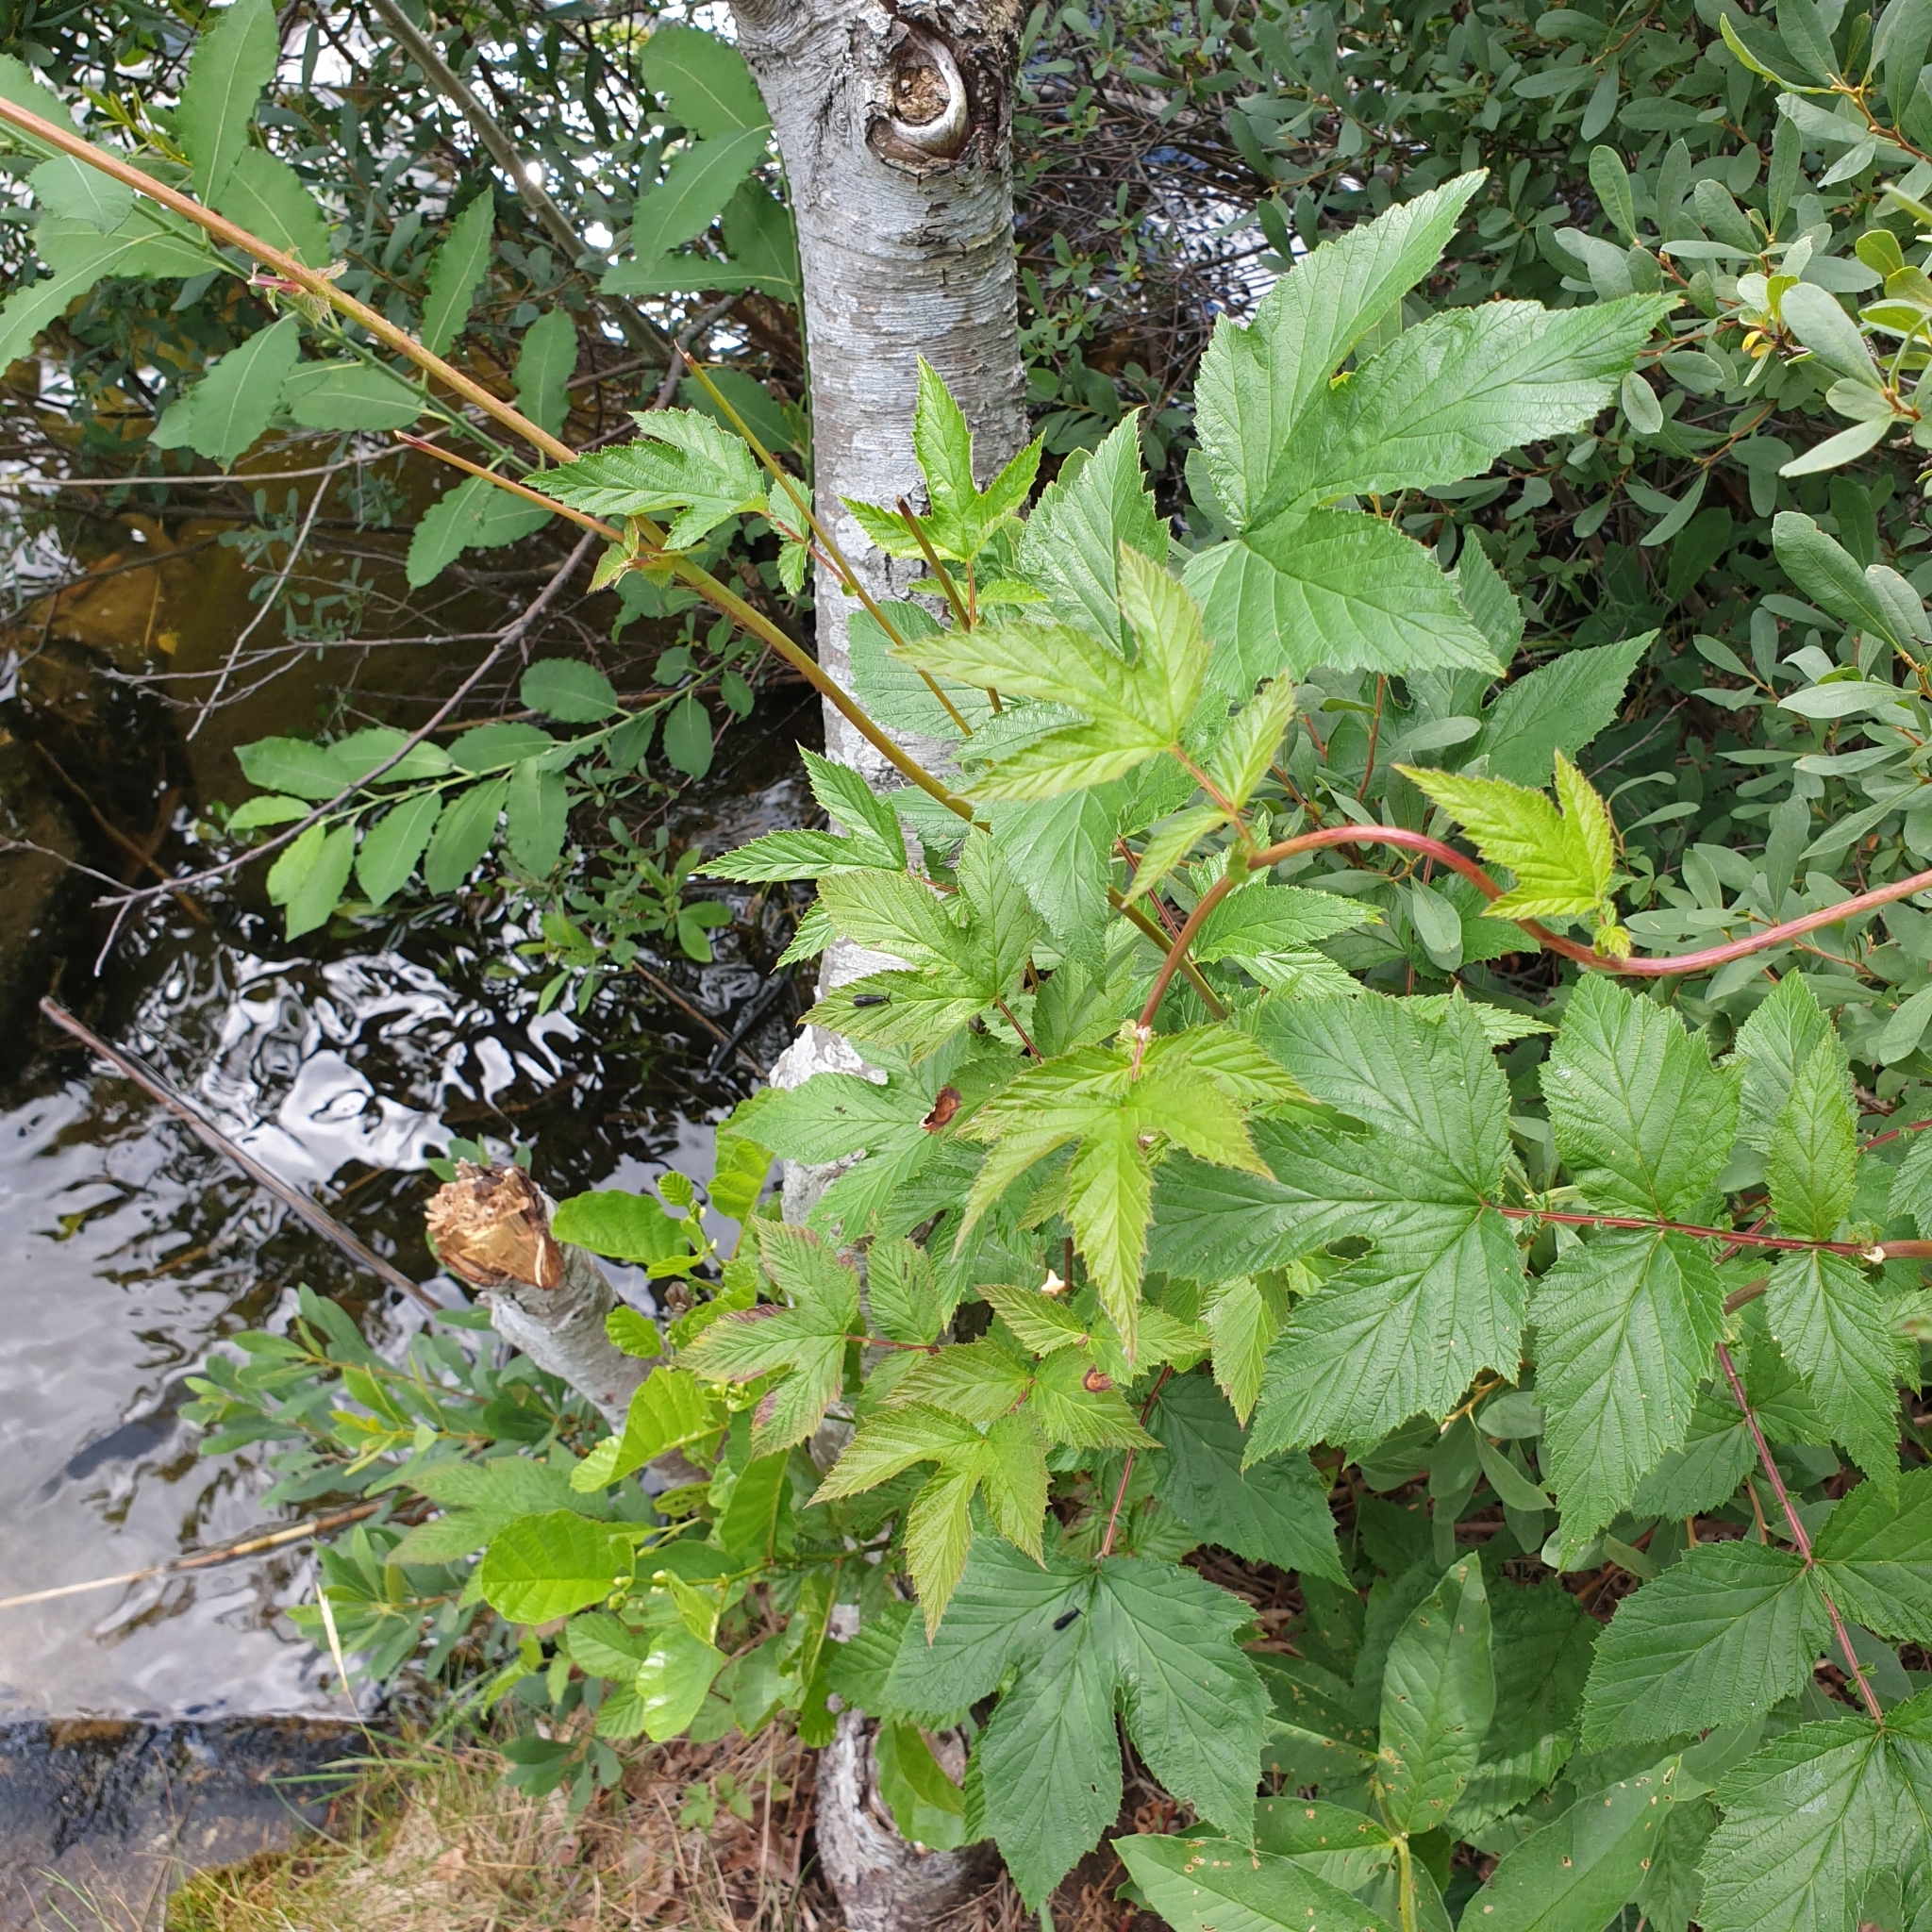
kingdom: Plantae
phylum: Tracheophyta
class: Magnoliopsida
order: Rosales
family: Rosaceae
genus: Filipendula
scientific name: Filipendula ulmaria
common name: Meadowsweet
